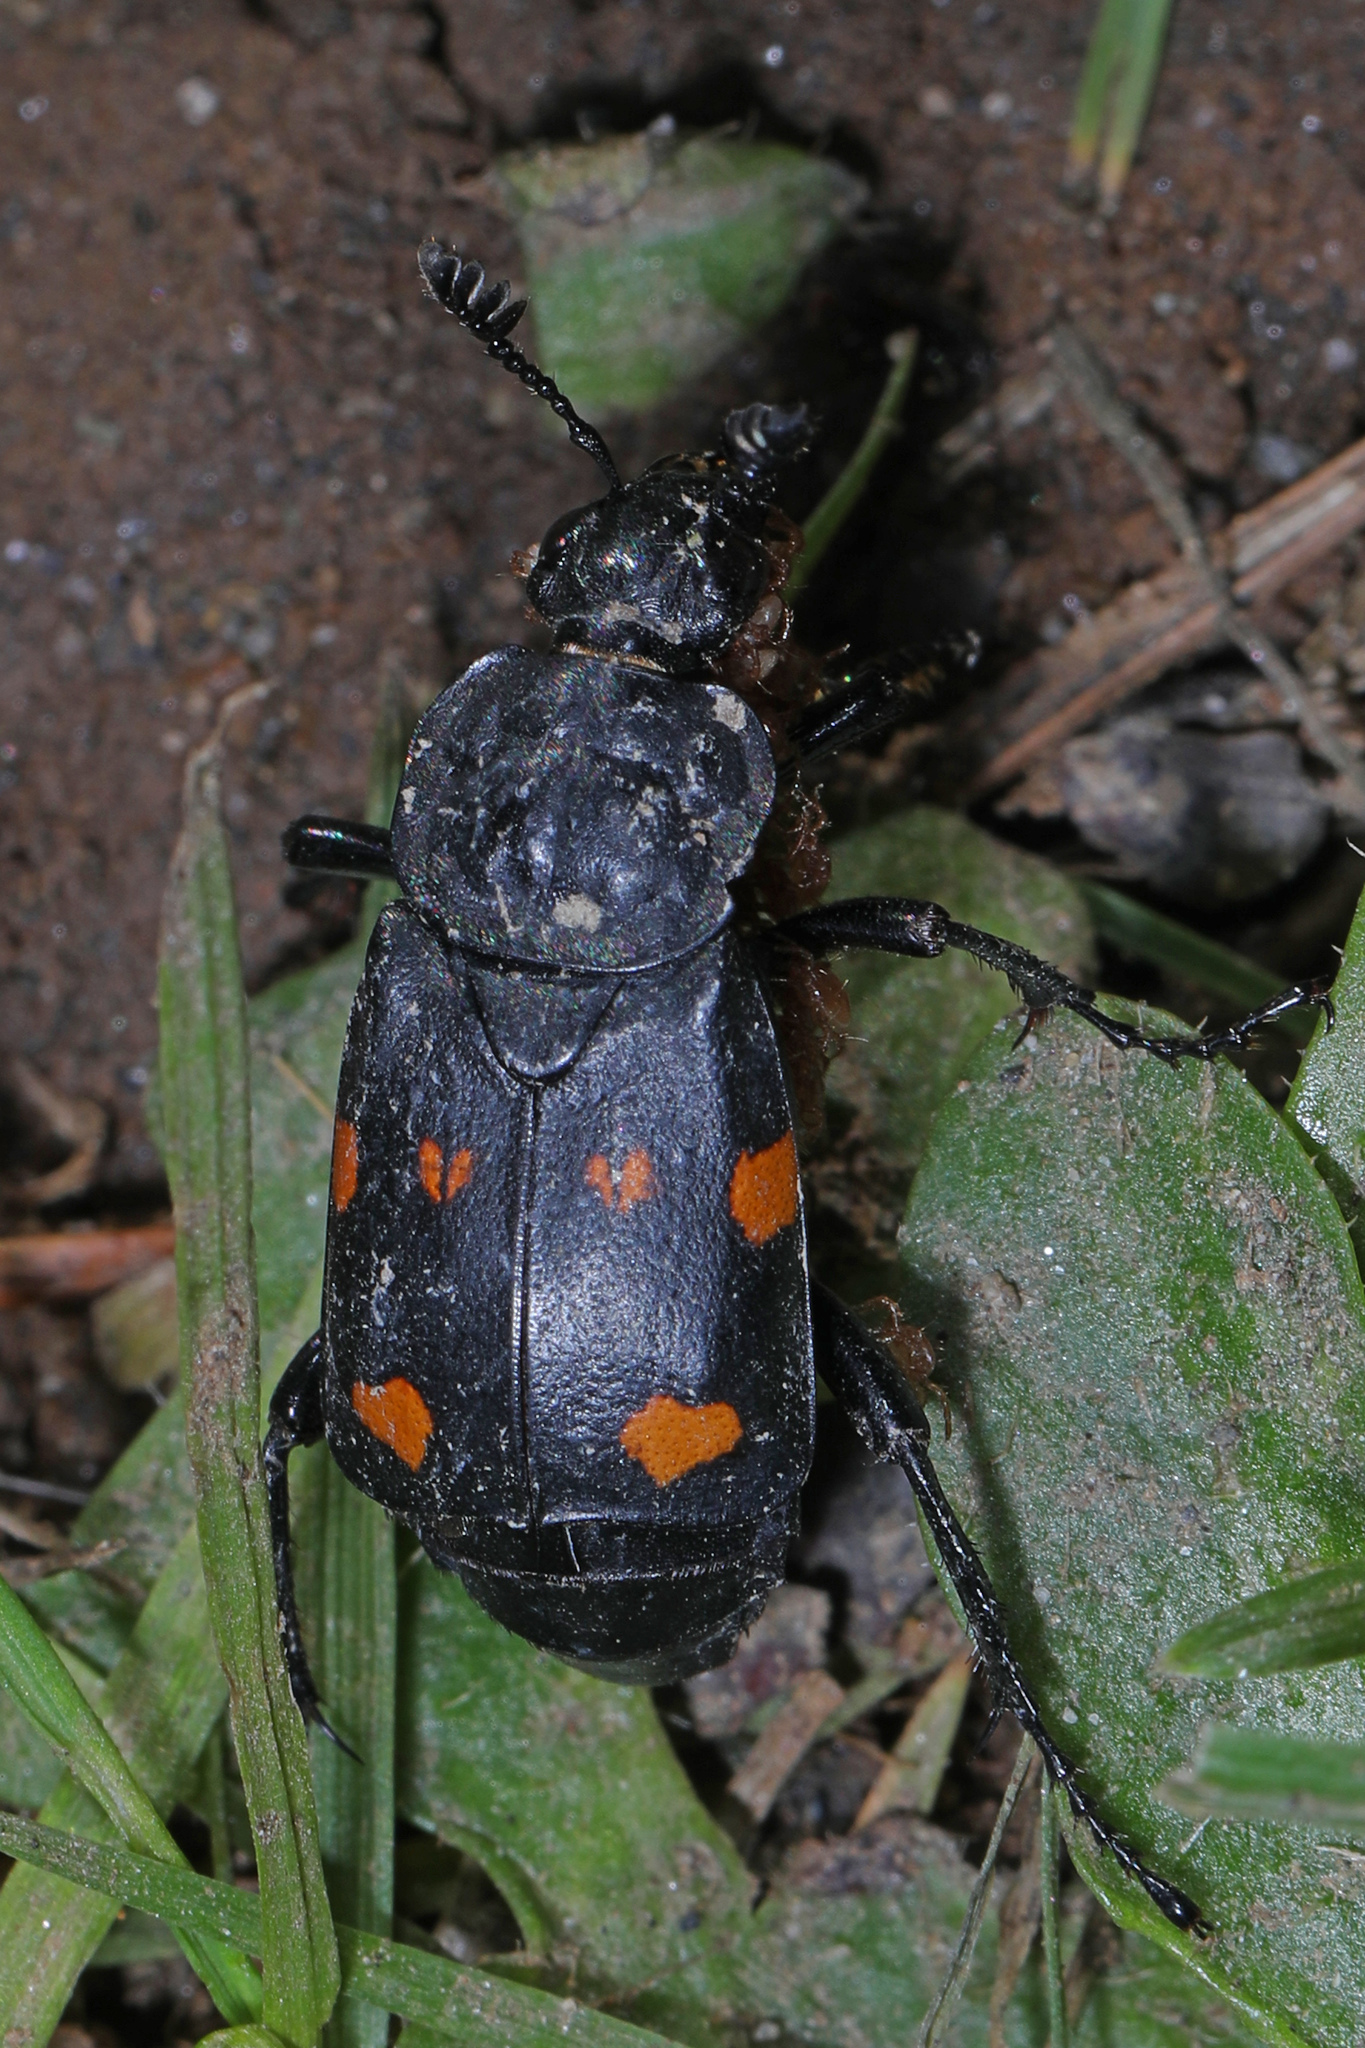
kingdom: Animalia
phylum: Arthropoda
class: Insecta
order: Coleoptera
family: Staphylinidae
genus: Nicrophorus
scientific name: Nicrophorus defodiens
